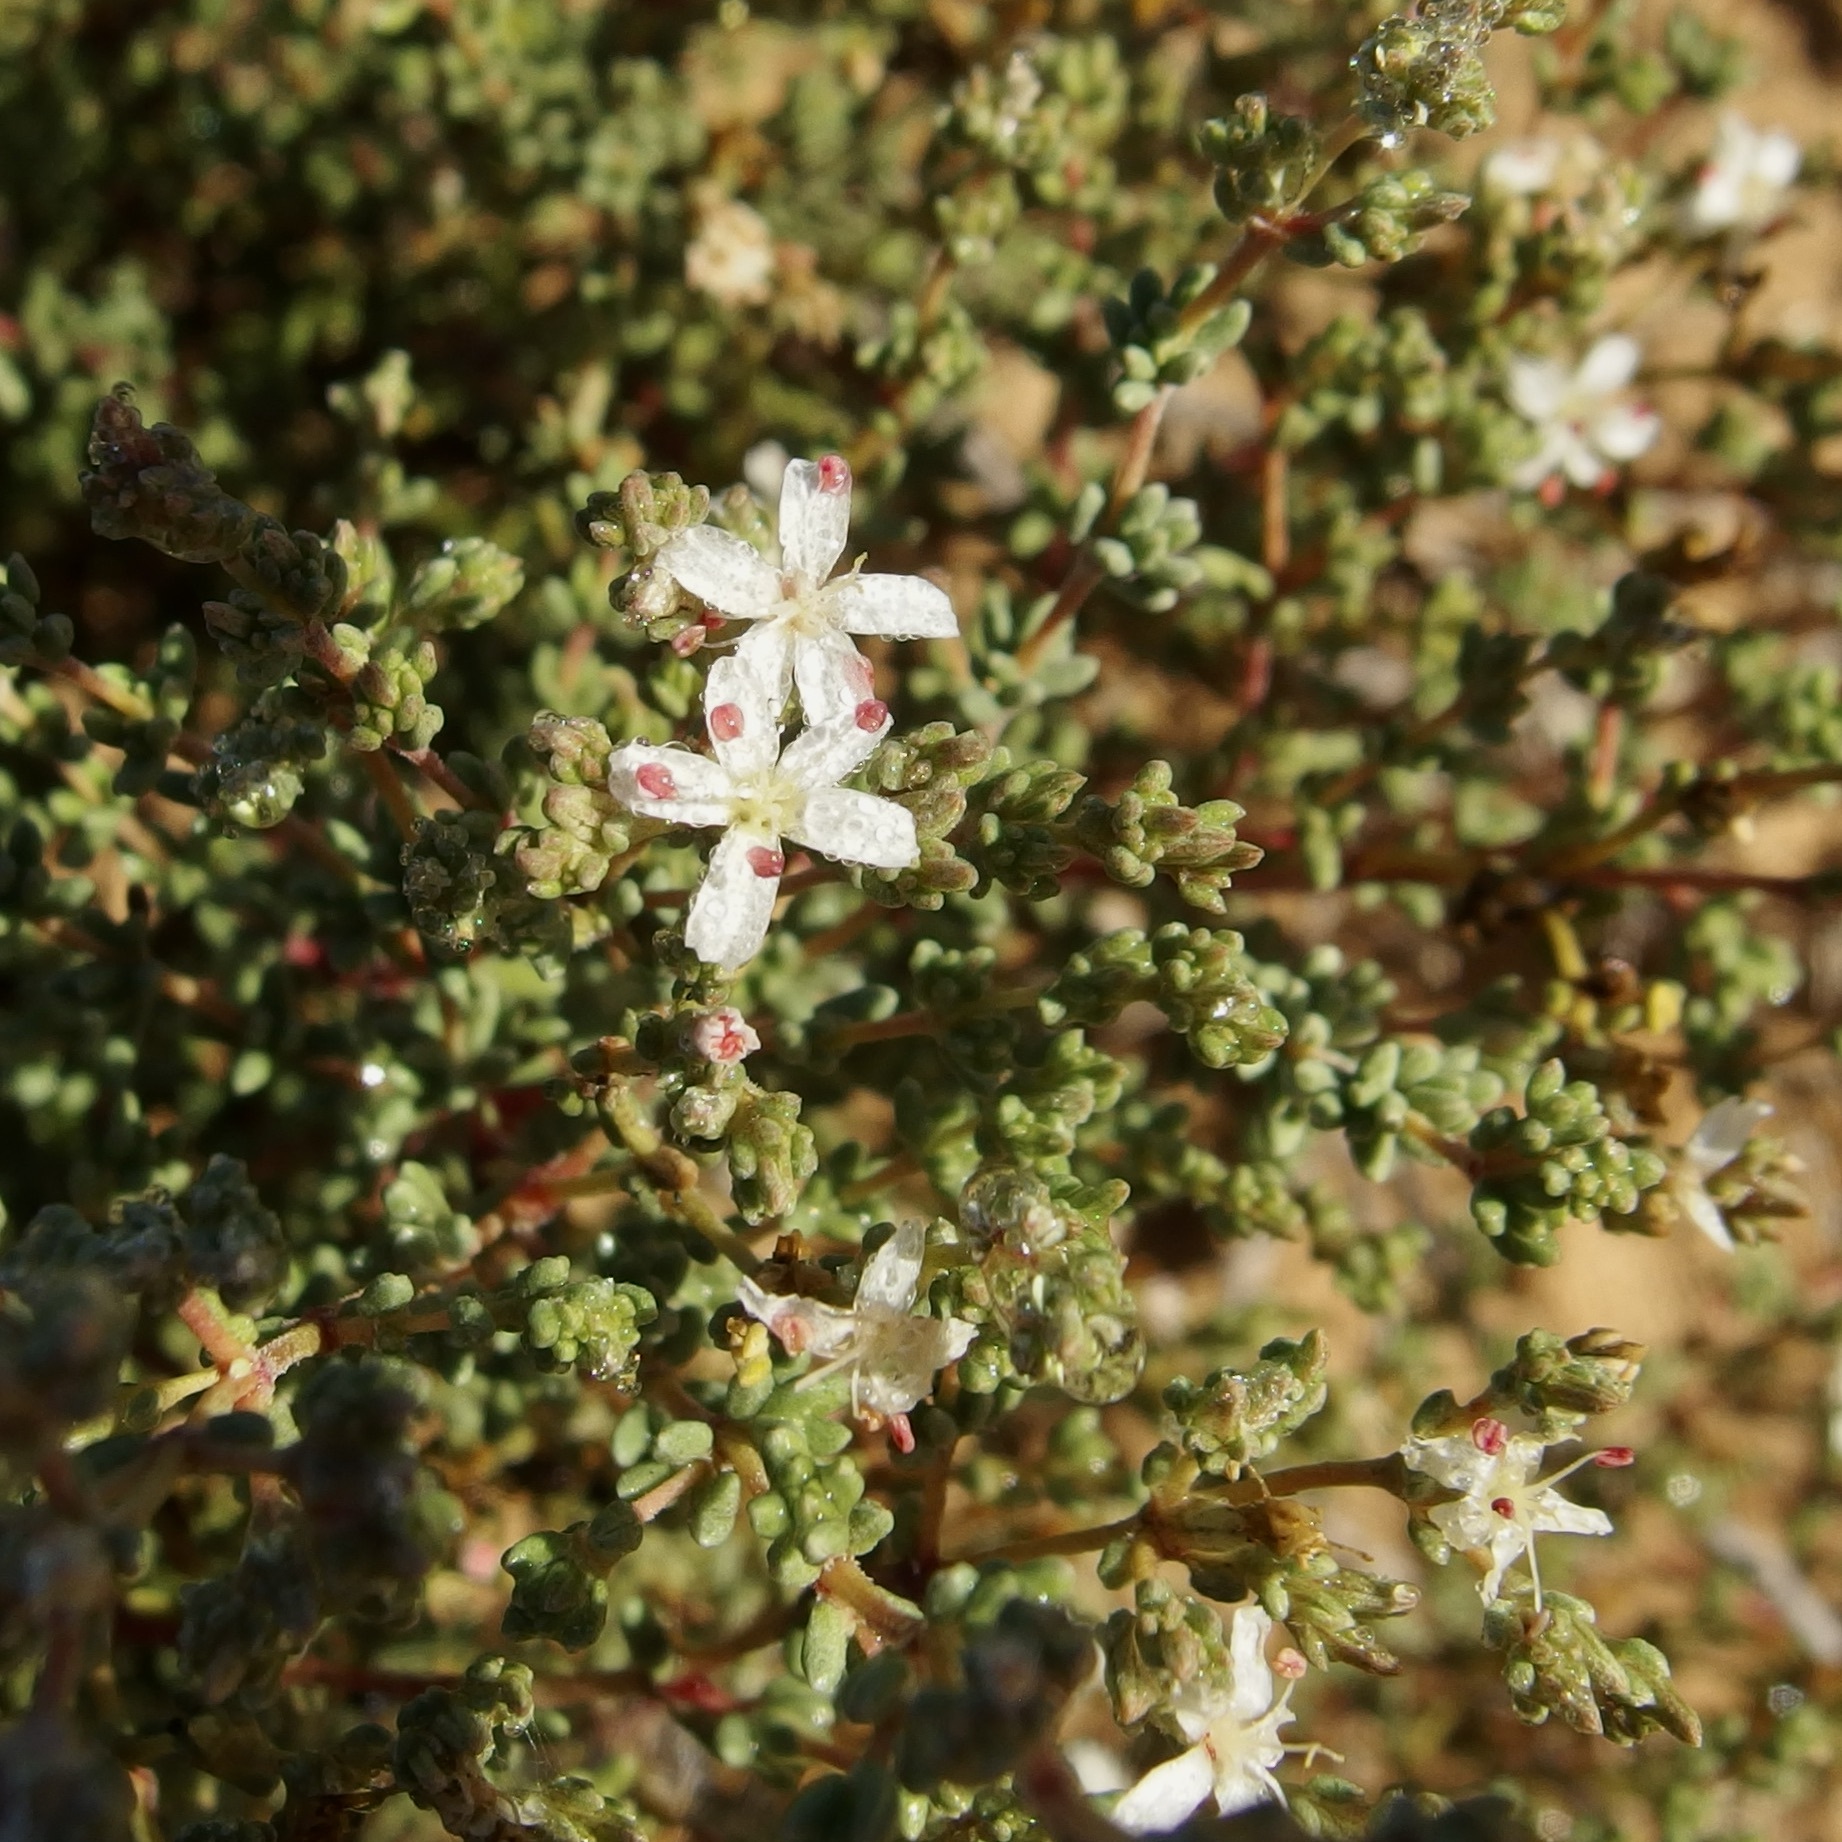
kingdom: Plantae
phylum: Tracheophyta
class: Magnoliopsida
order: Caryophyllales
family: Frankeniaceae
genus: Frankenia
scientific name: Frankenia palmeri
